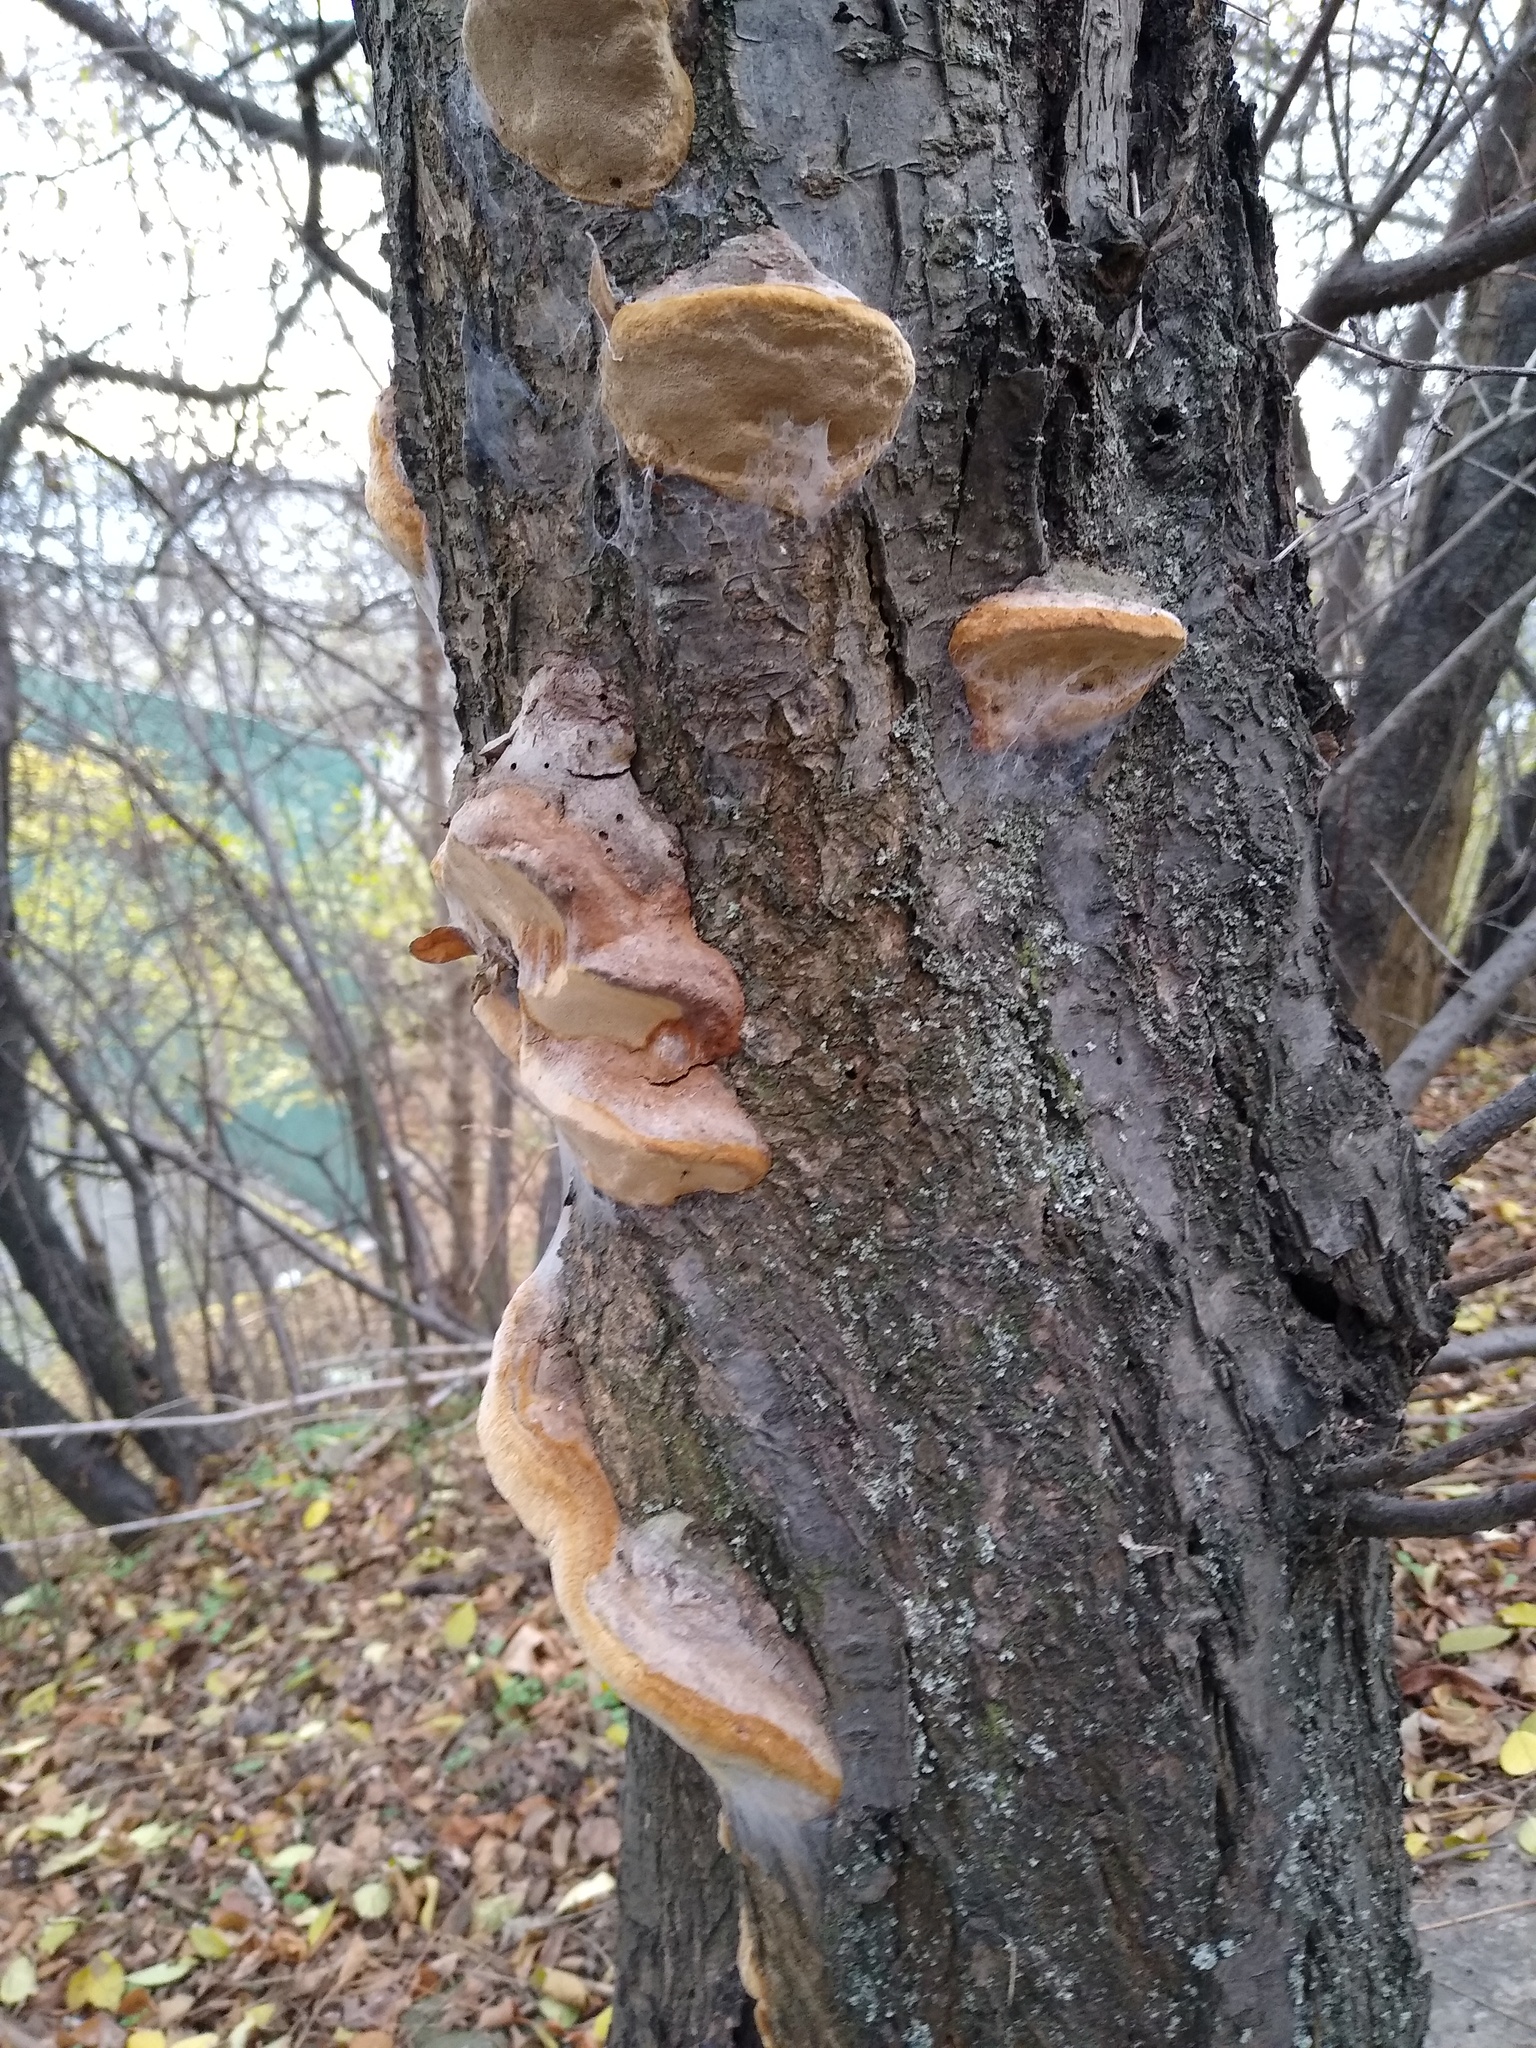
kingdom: Fungi
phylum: Basidiomycota
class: Agaricomycetes
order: Hymenochaetales
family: Hymenochaetaceae
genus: Phellinus
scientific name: Phellinus pomaceus
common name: Cushion bracket
